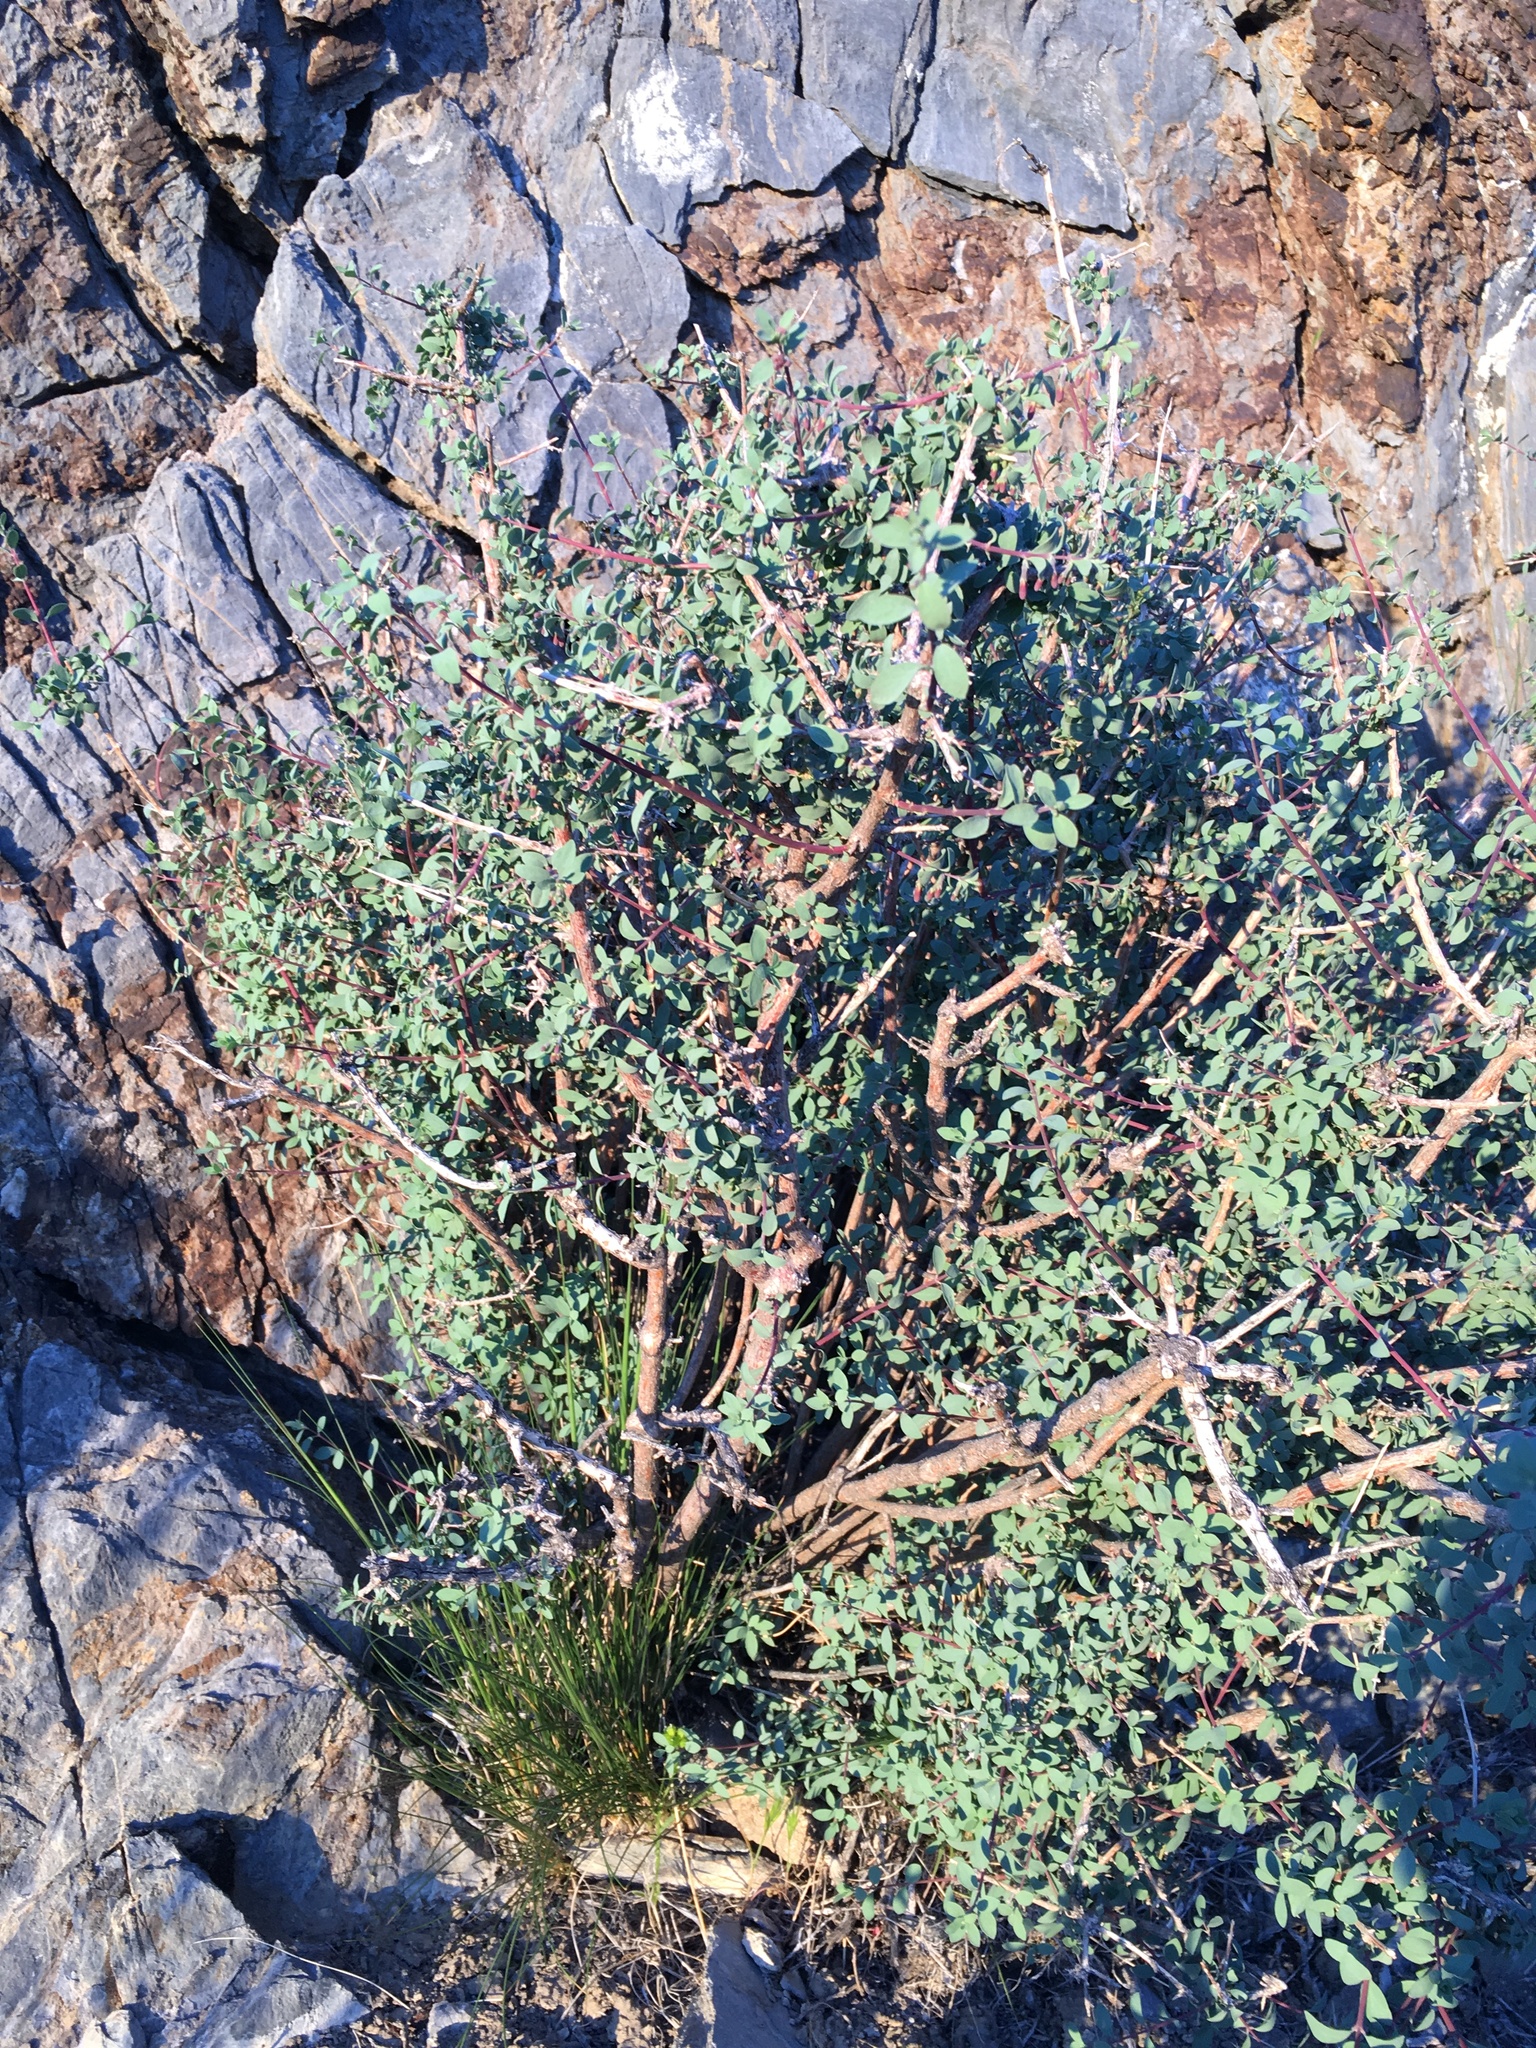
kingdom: Plantae
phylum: Tracheophyta
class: Magnoliopsida
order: Dipsacales
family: Caprifoliaceae
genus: Symphoricarpos
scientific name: Symphoricarpos longiflorus
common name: Fragrant snowberry
